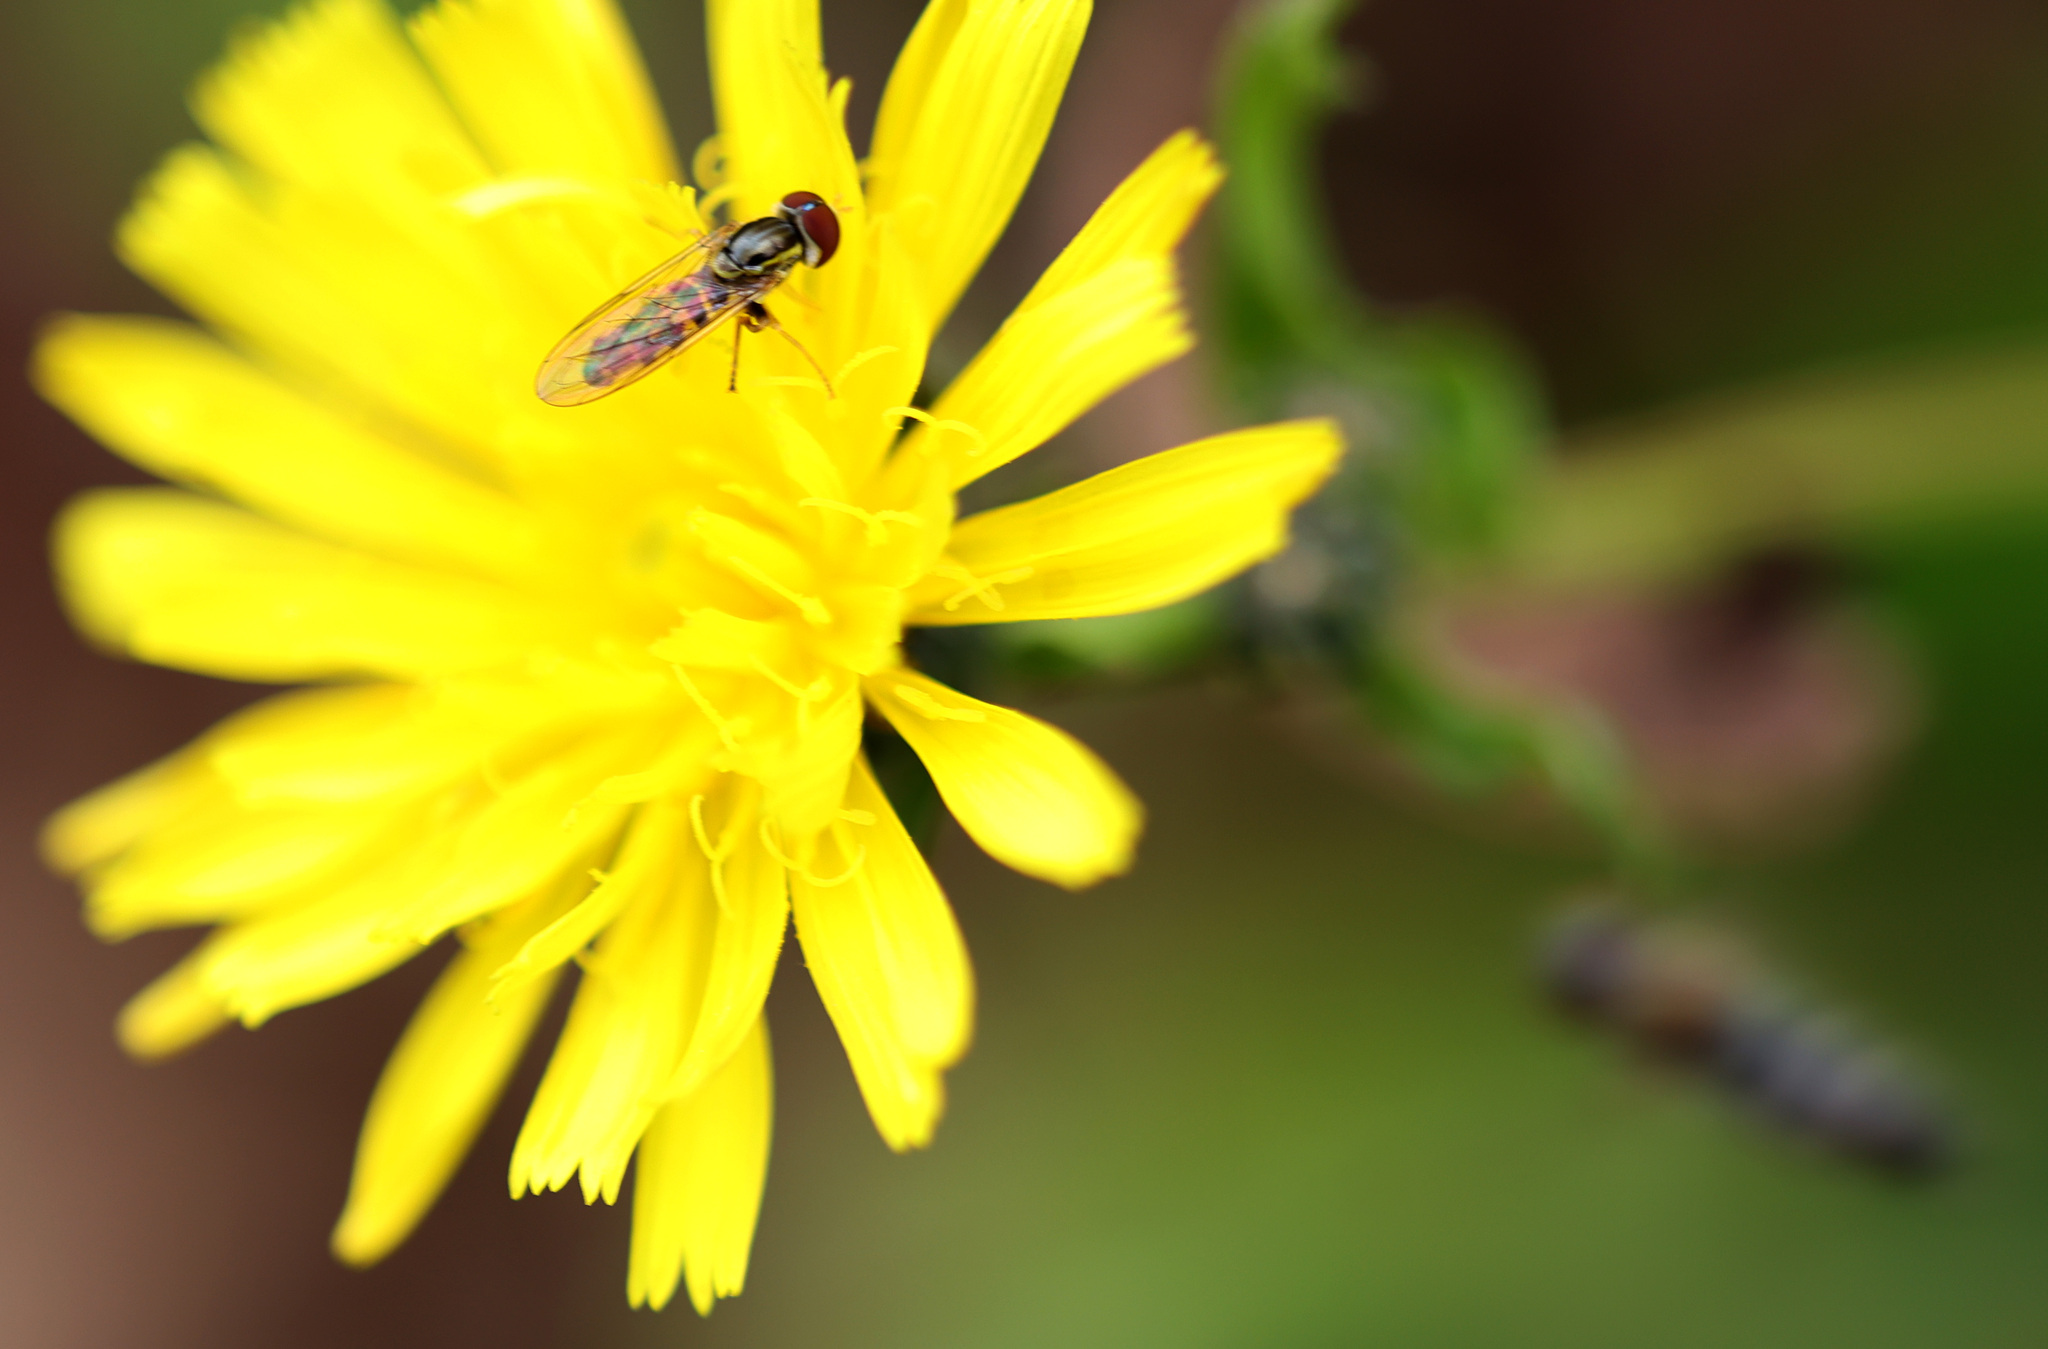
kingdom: Animalia
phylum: Arthropoda
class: Insecta
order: Diptera
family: Syrphidae
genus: Toxomerus
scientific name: Toxomerus geminatus
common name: Eastern calligrapher
